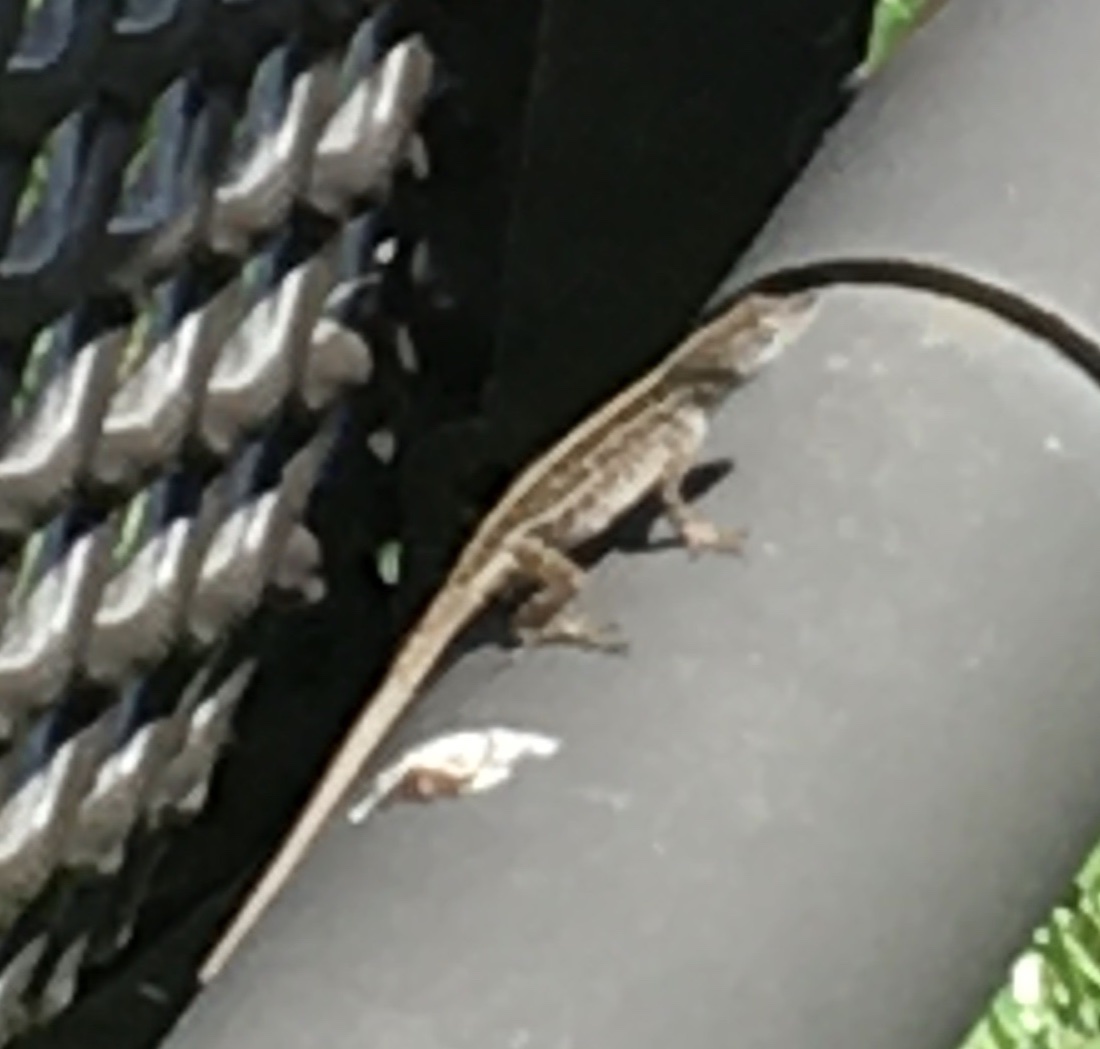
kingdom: Animalia
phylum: Chordata
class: Squamata
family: Dactyloidae
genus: Anolis
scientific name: Anolis sagrei
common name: Brown anole
